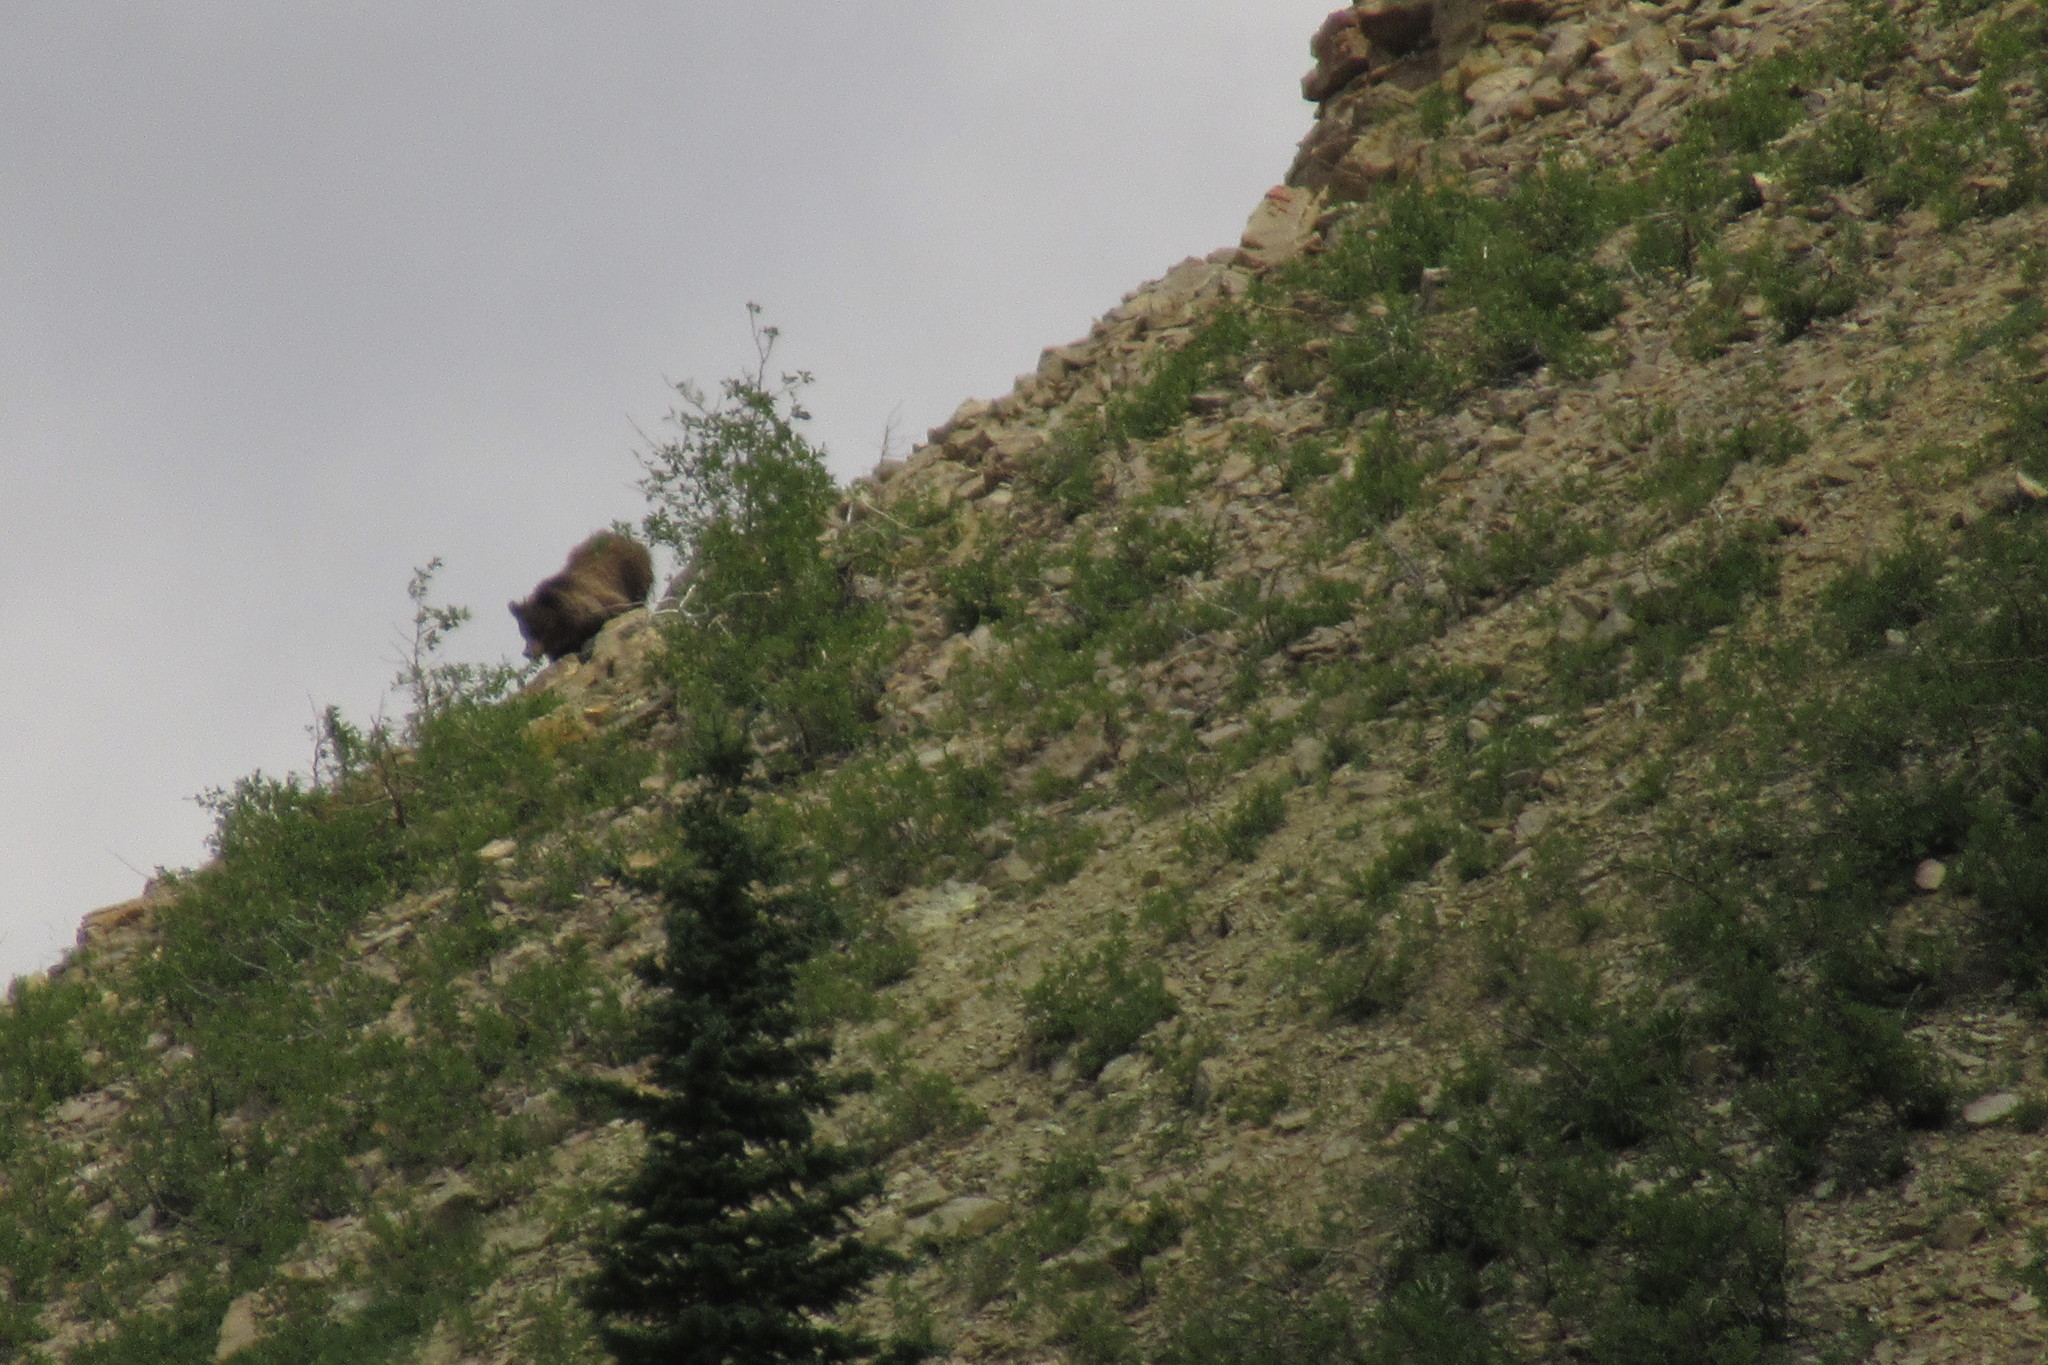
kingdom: Animalia
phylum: Chordata
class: Mammalia
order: Carnivora
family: Ursidae
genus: Ursus
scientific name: Ursus arctos
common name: Brown bear
